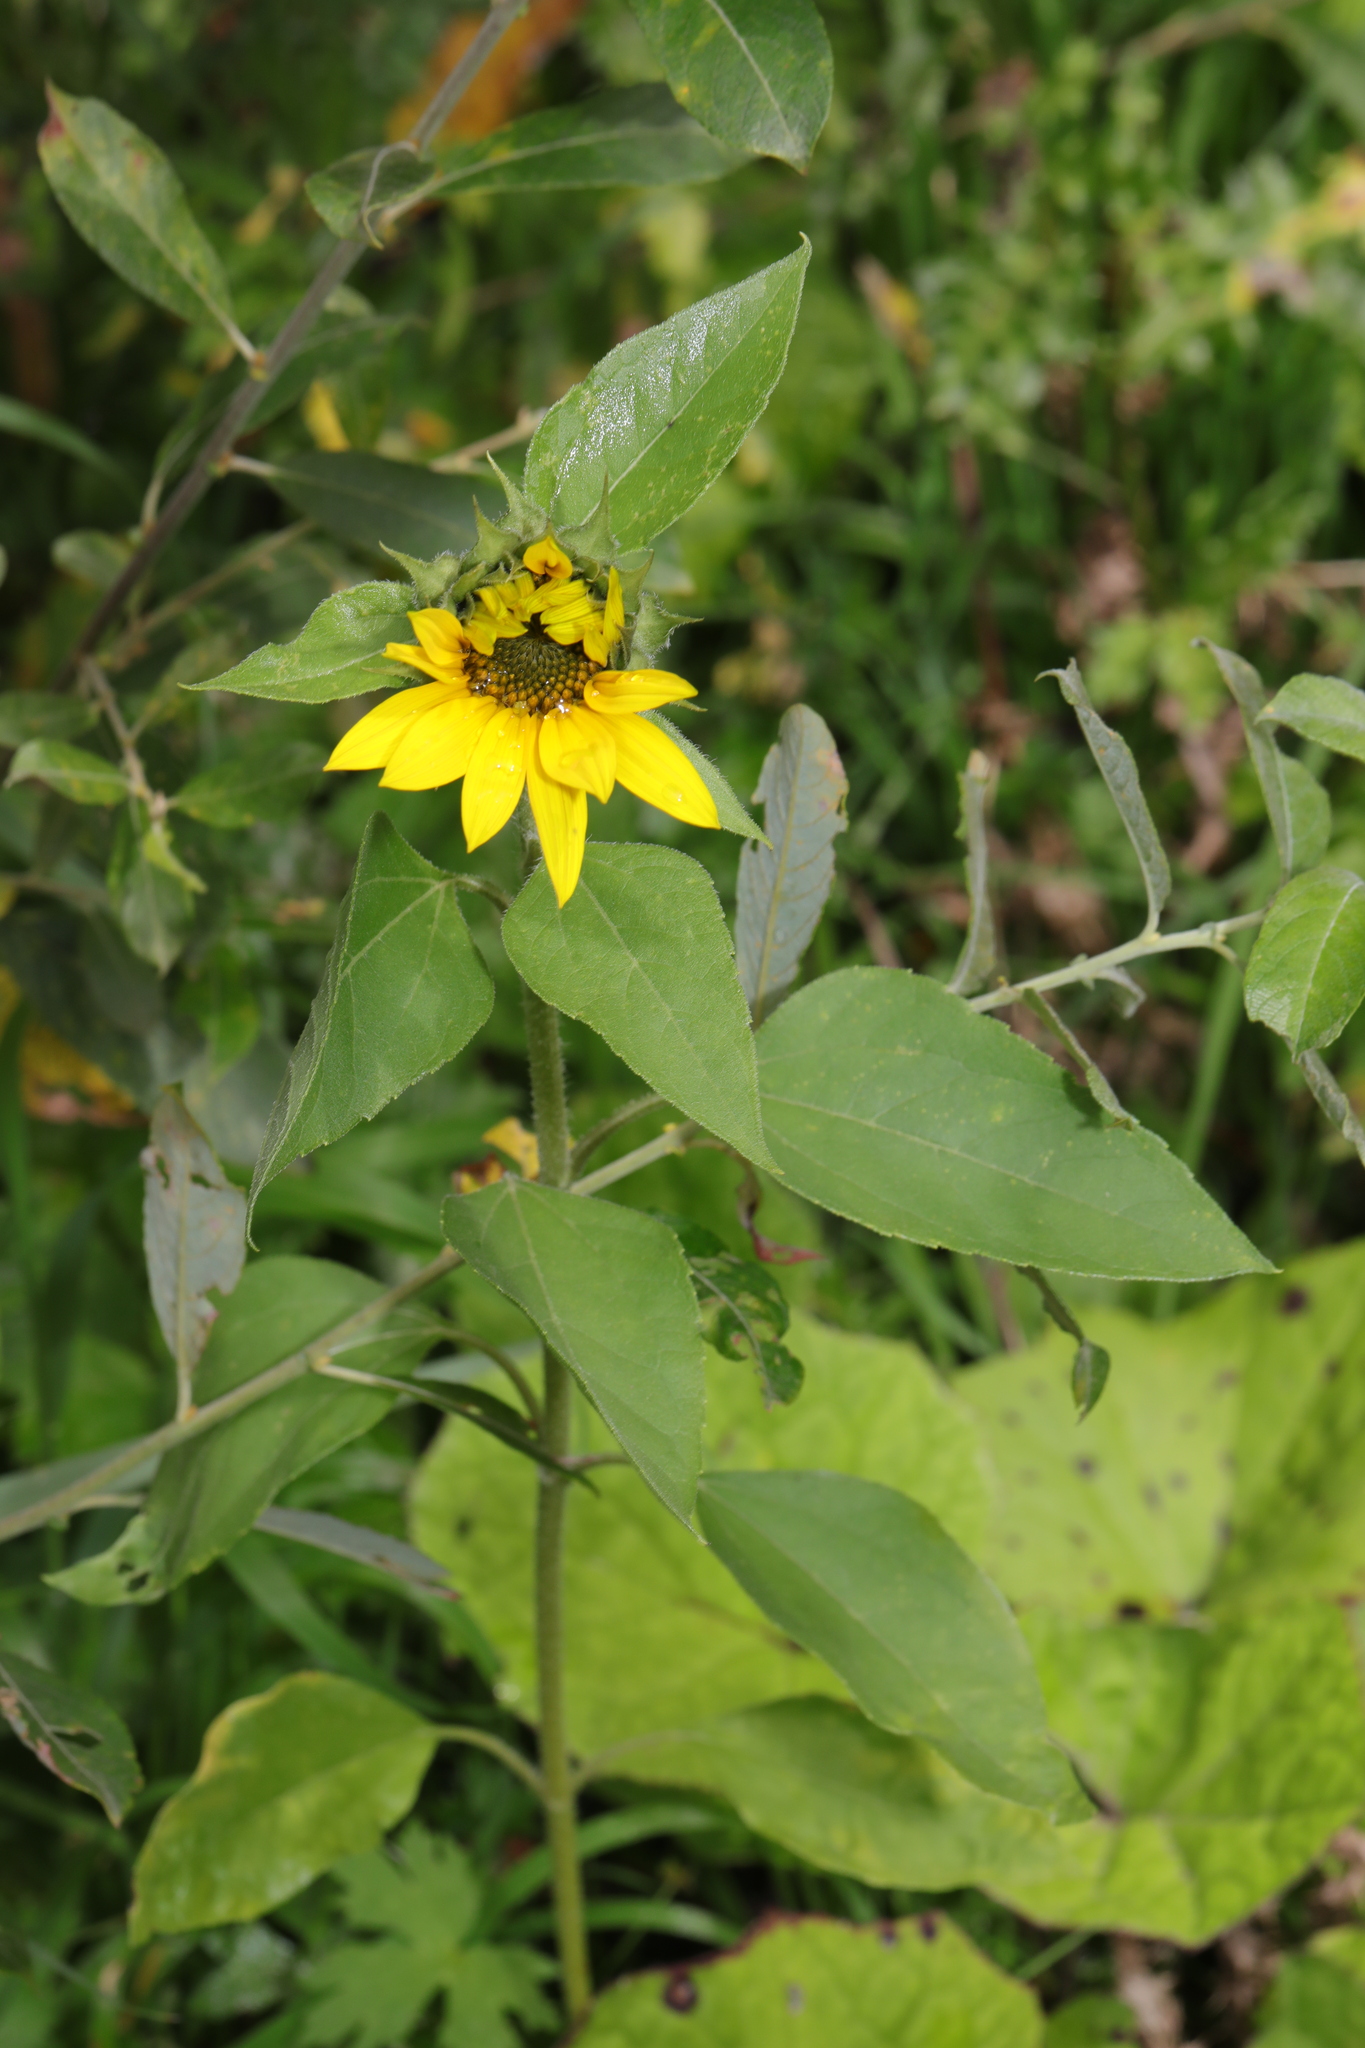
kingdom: Plantae
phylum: Tracheophyta
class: Magnoliopsida
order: Asterales
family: Asteraceae
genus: Helianthus
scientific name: Helianthus annuus
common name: Sunflower
